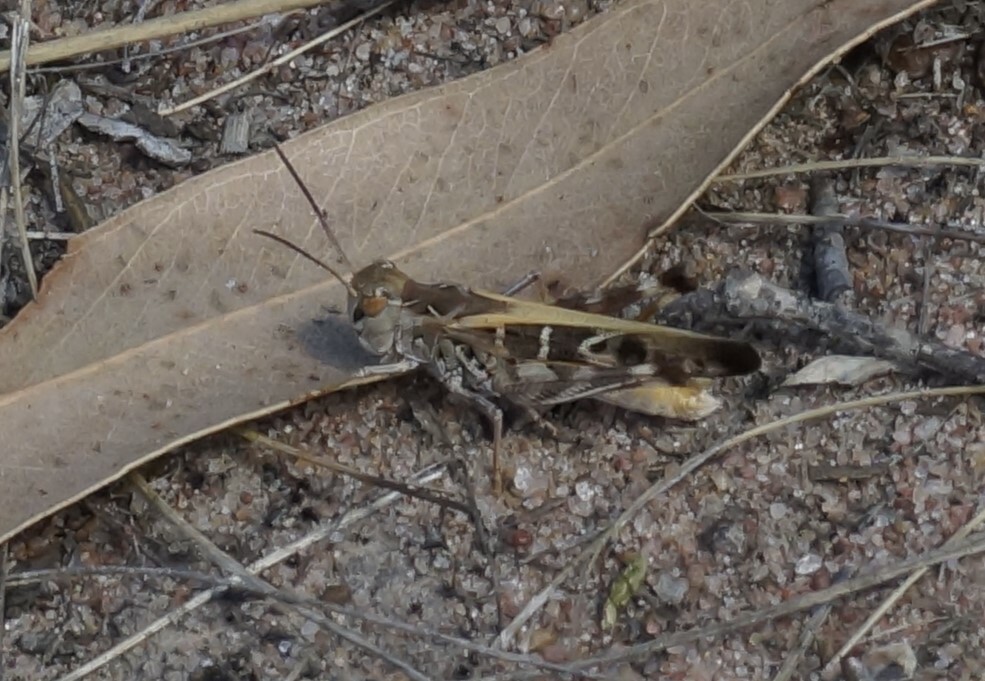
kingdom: Animalia
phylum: Arthropoda
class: Insecta
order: Orthoptera
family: Acrididae
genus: Oedaleus
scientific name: Oedaleus australis
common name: Eastern oedaleus
